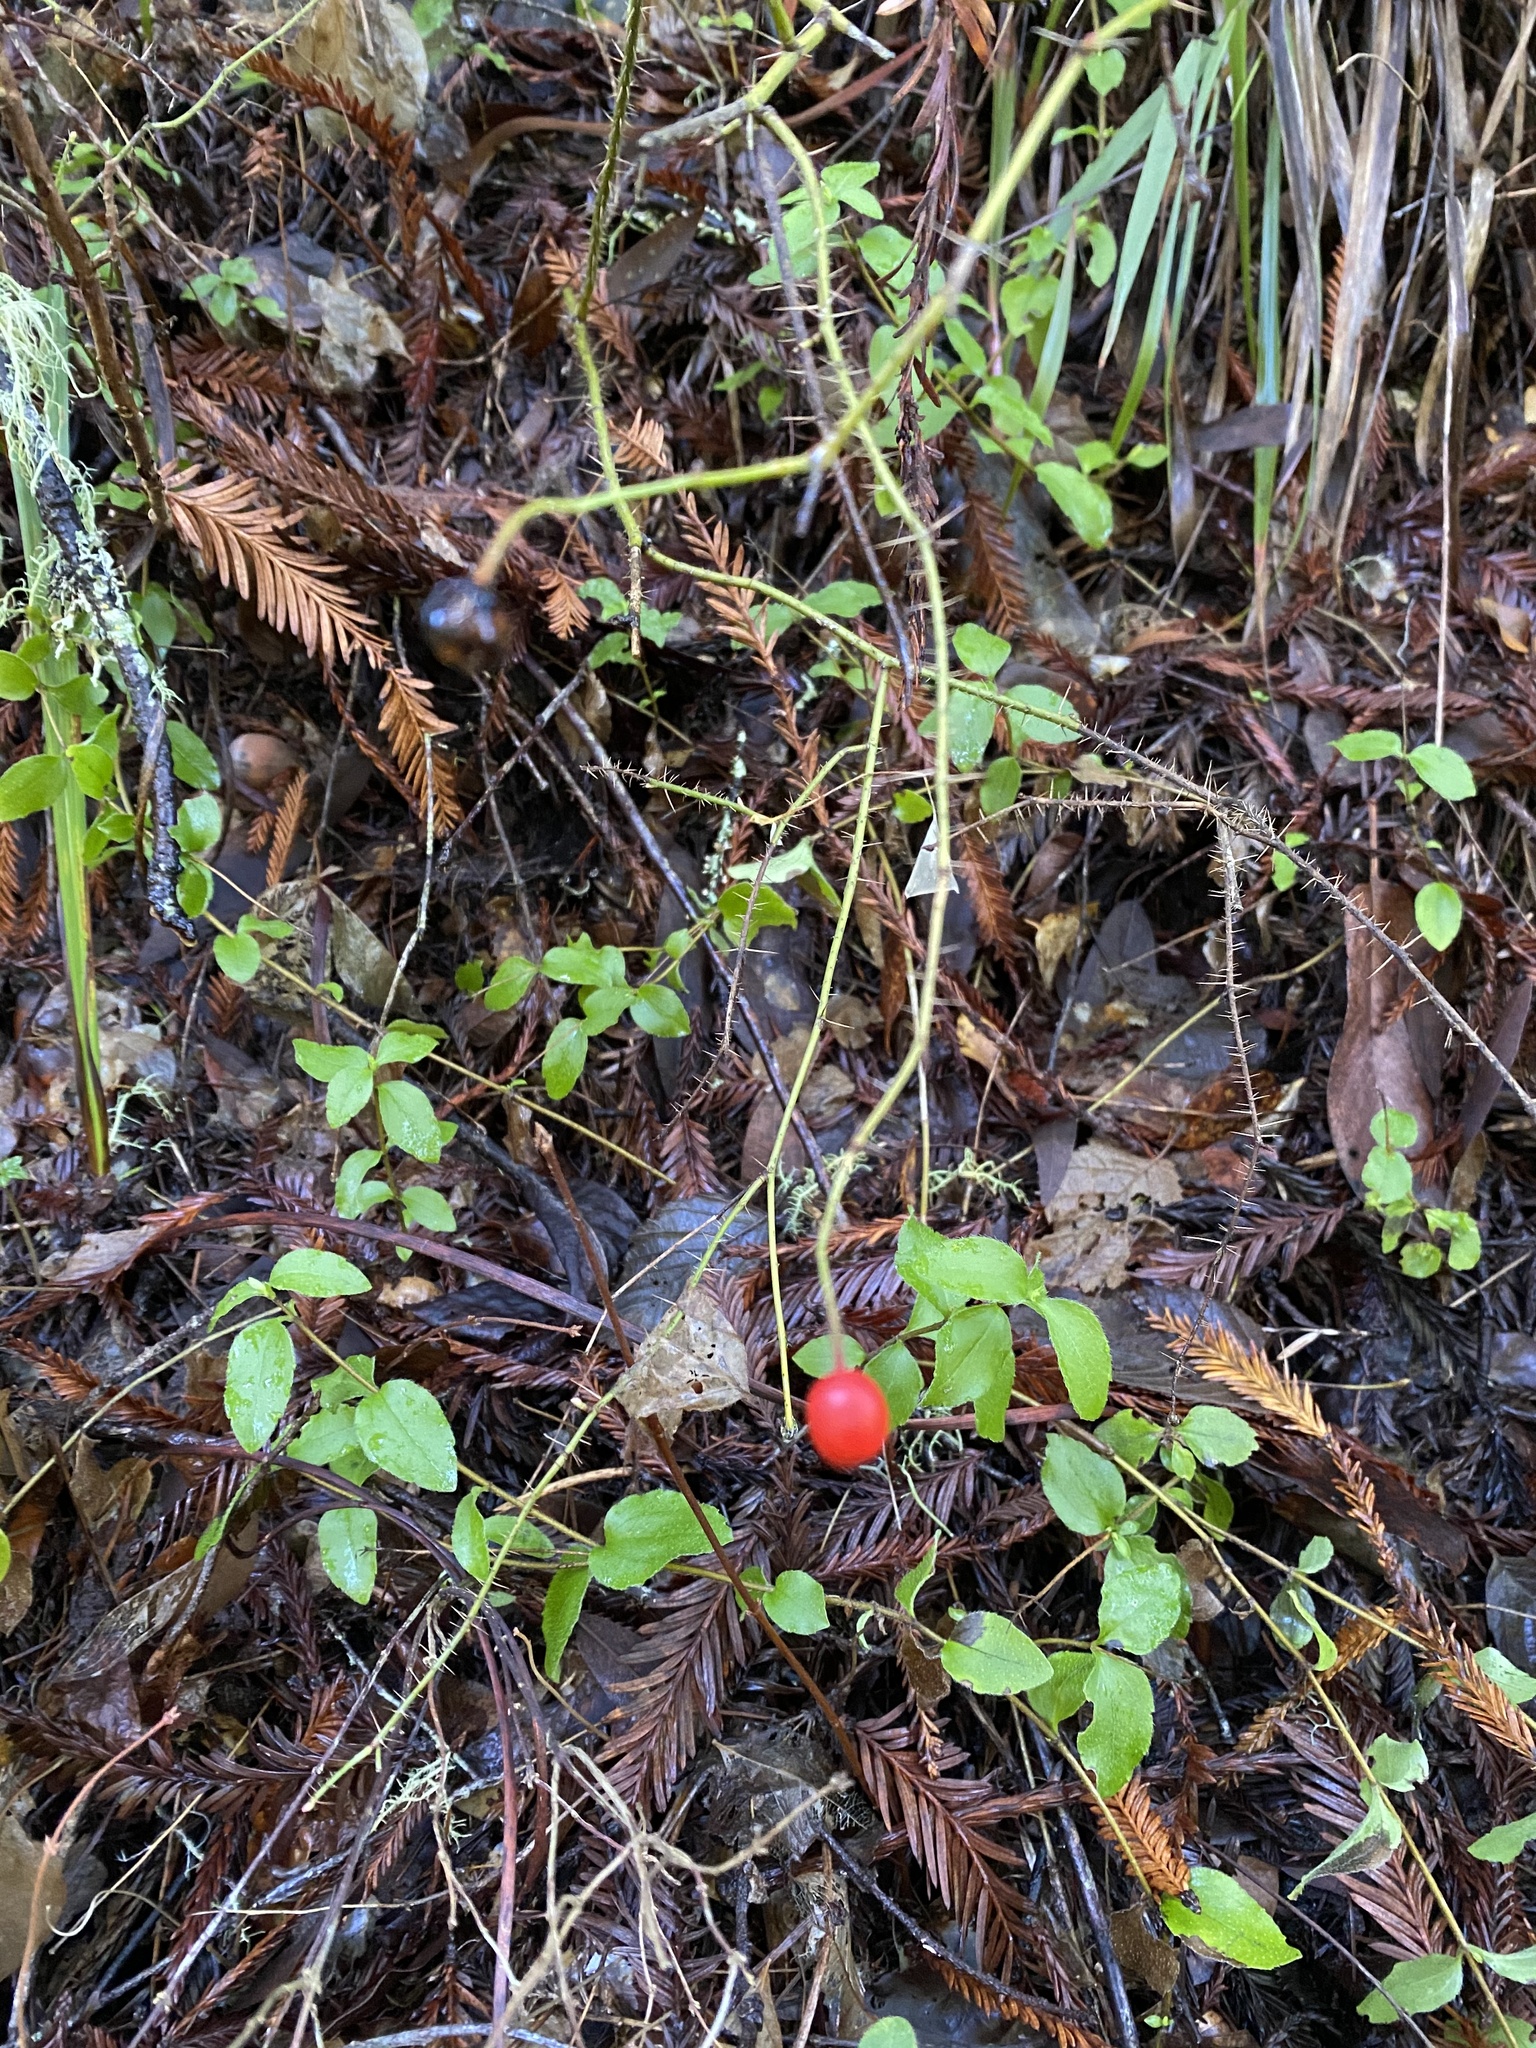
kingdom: Plantae
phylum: Tracheophyta
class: Magnoliopsida
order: Rosales
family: Rosaceae
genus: Rosa
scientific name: Rosa gymnocarpa
